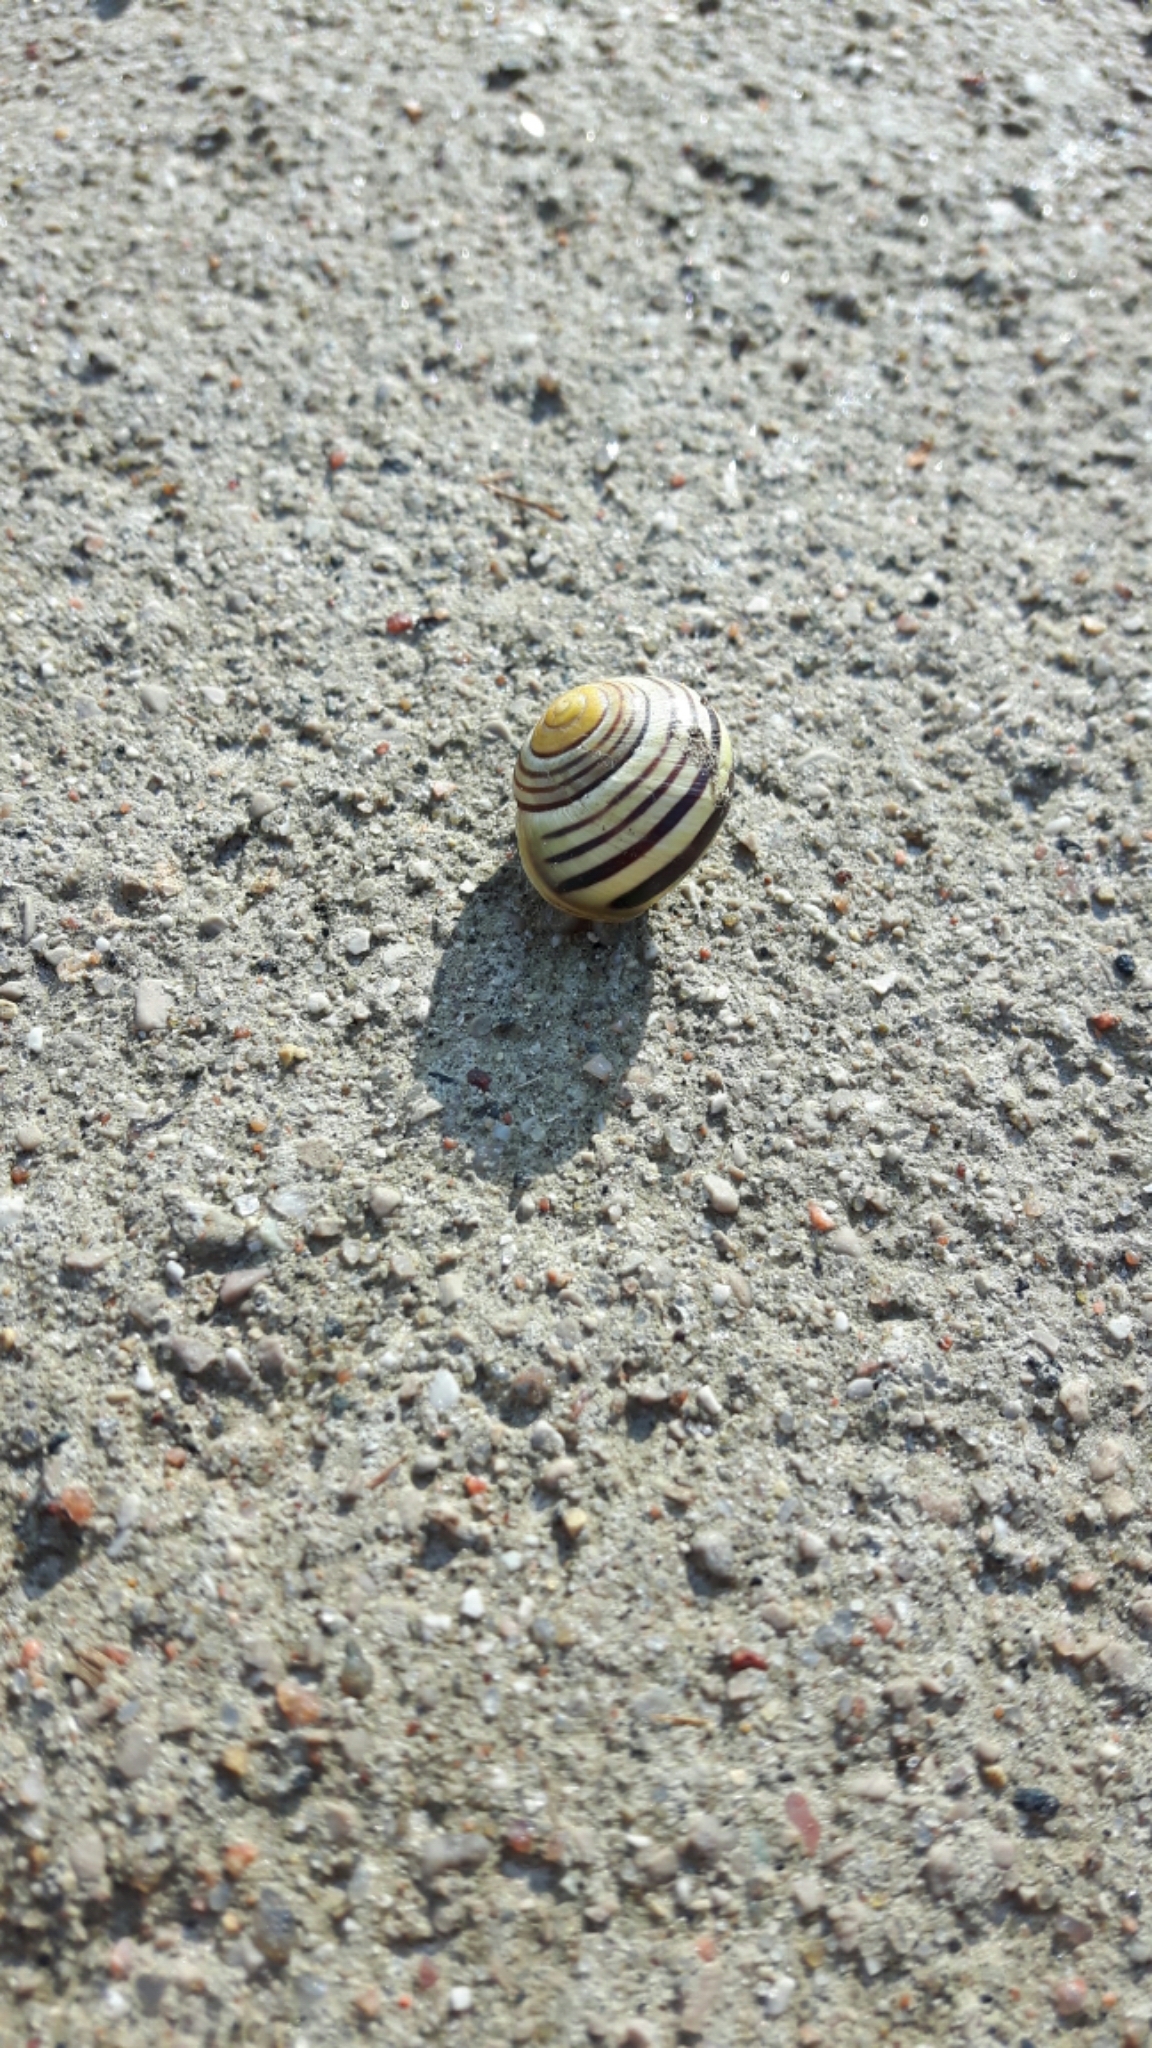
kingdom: Animalia
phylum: Mollusca
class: Gastropoda
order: Stylommatophora
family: Helicidae
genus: Cepaea
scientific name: Cepaea nemoralis
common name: Grovesnail
